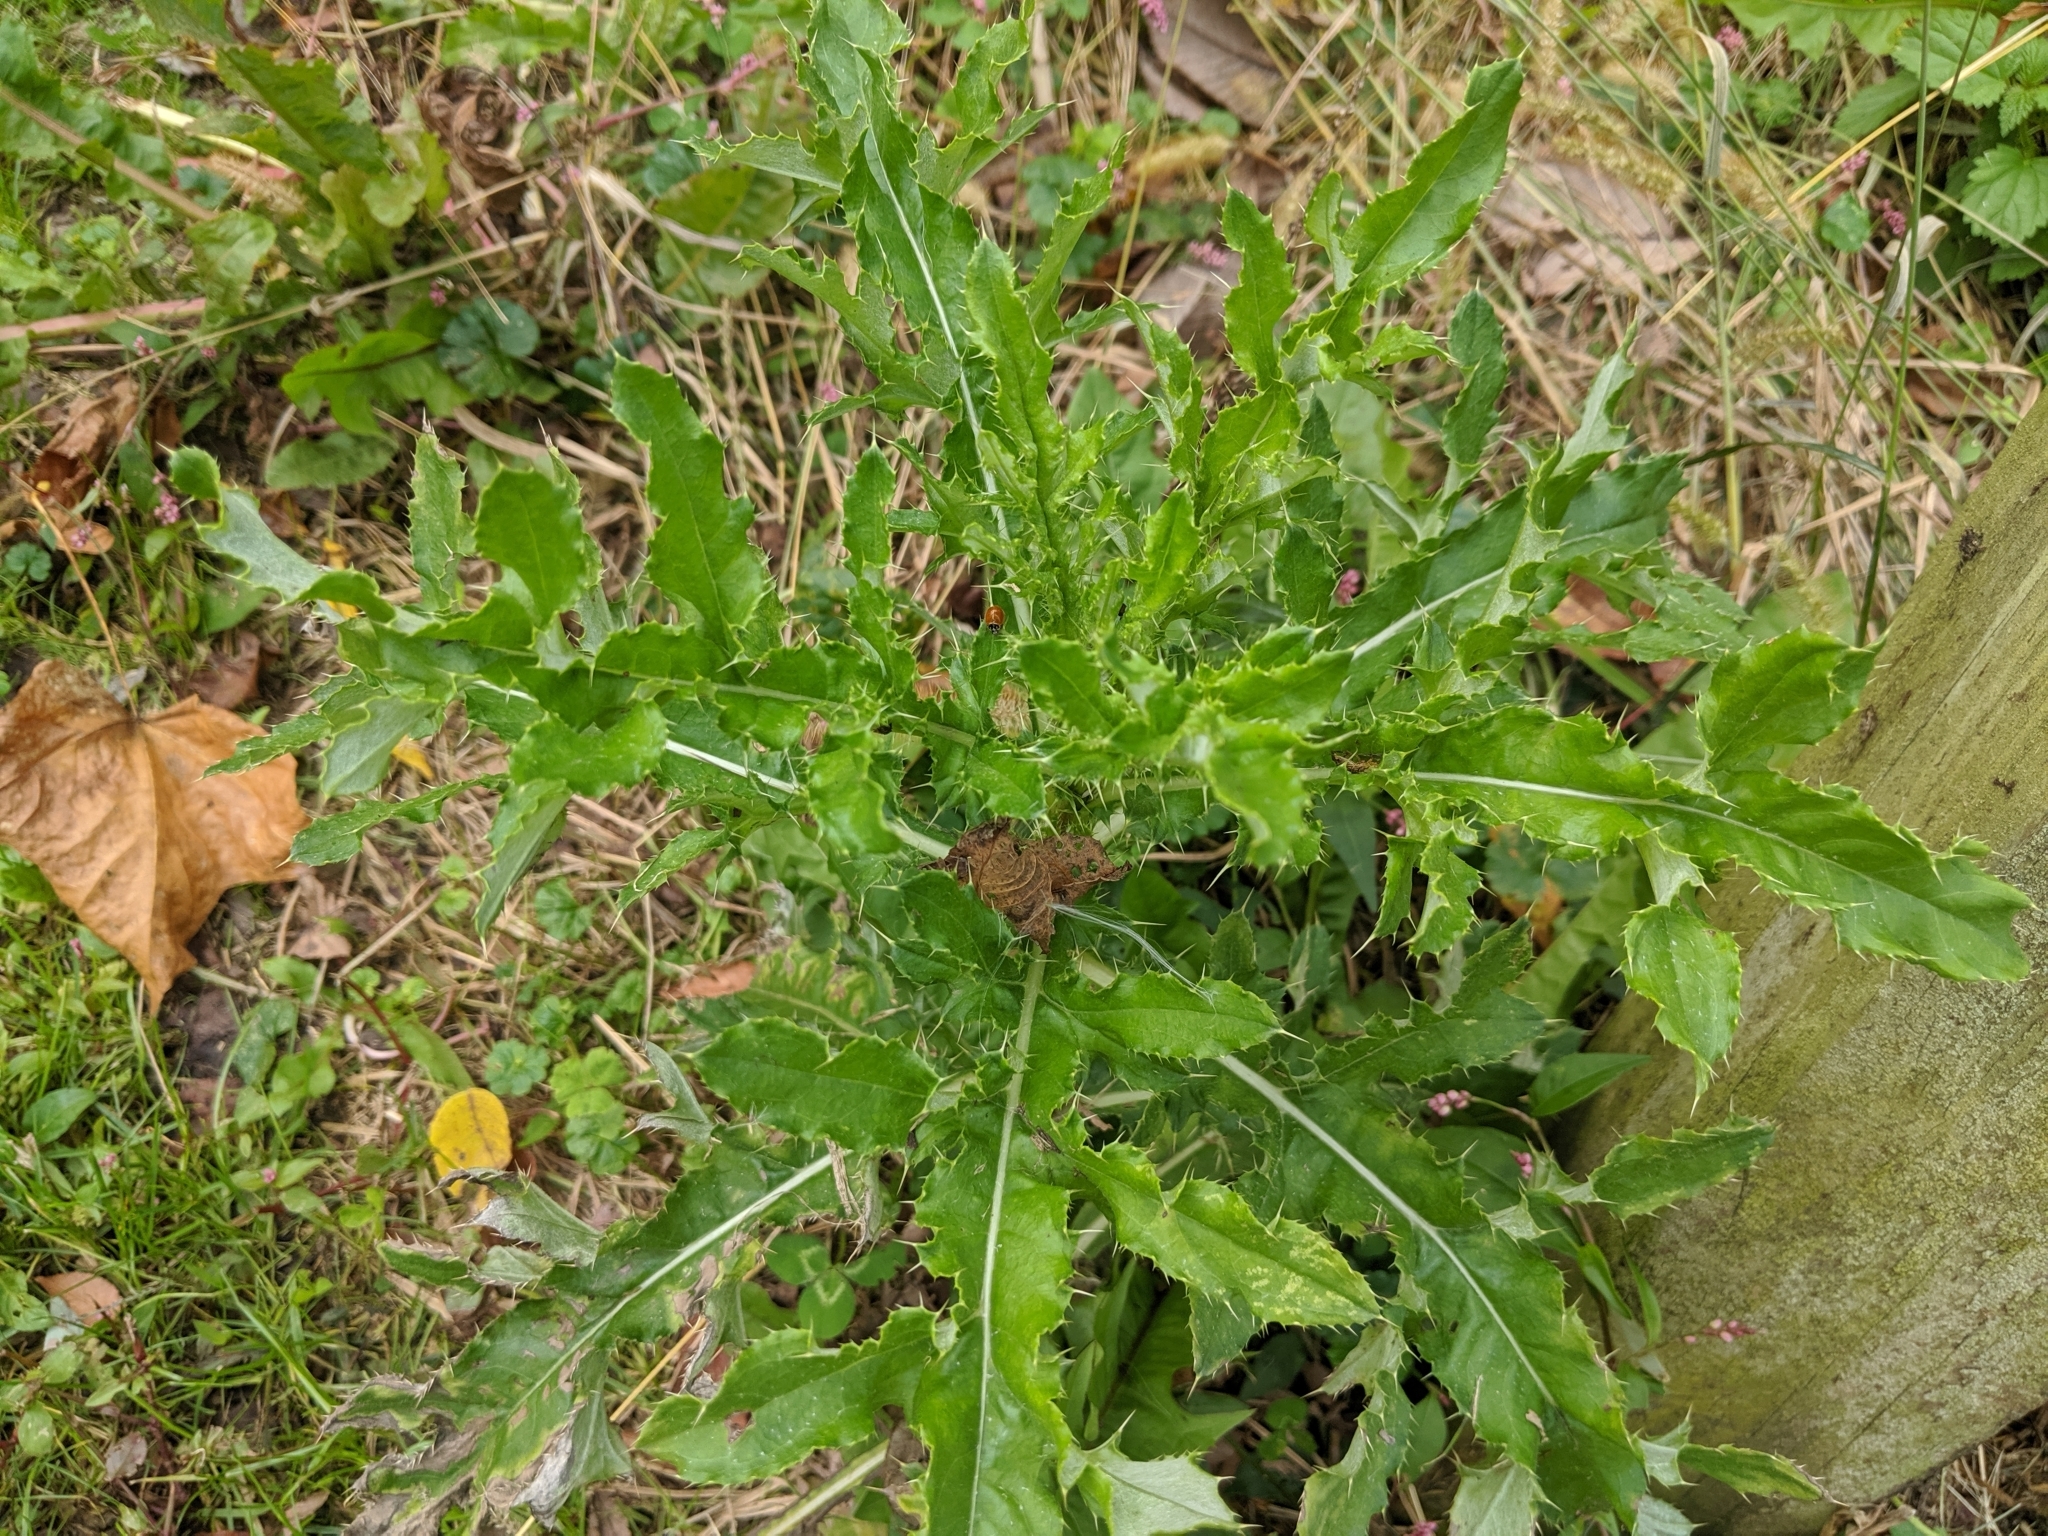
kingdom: Plantae
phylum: Tracheophyta
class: Magnoliopsida
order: Asterales
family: Asteraceae
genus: Cirsium
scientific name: Cirsium arvense
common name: Creeping thistle
